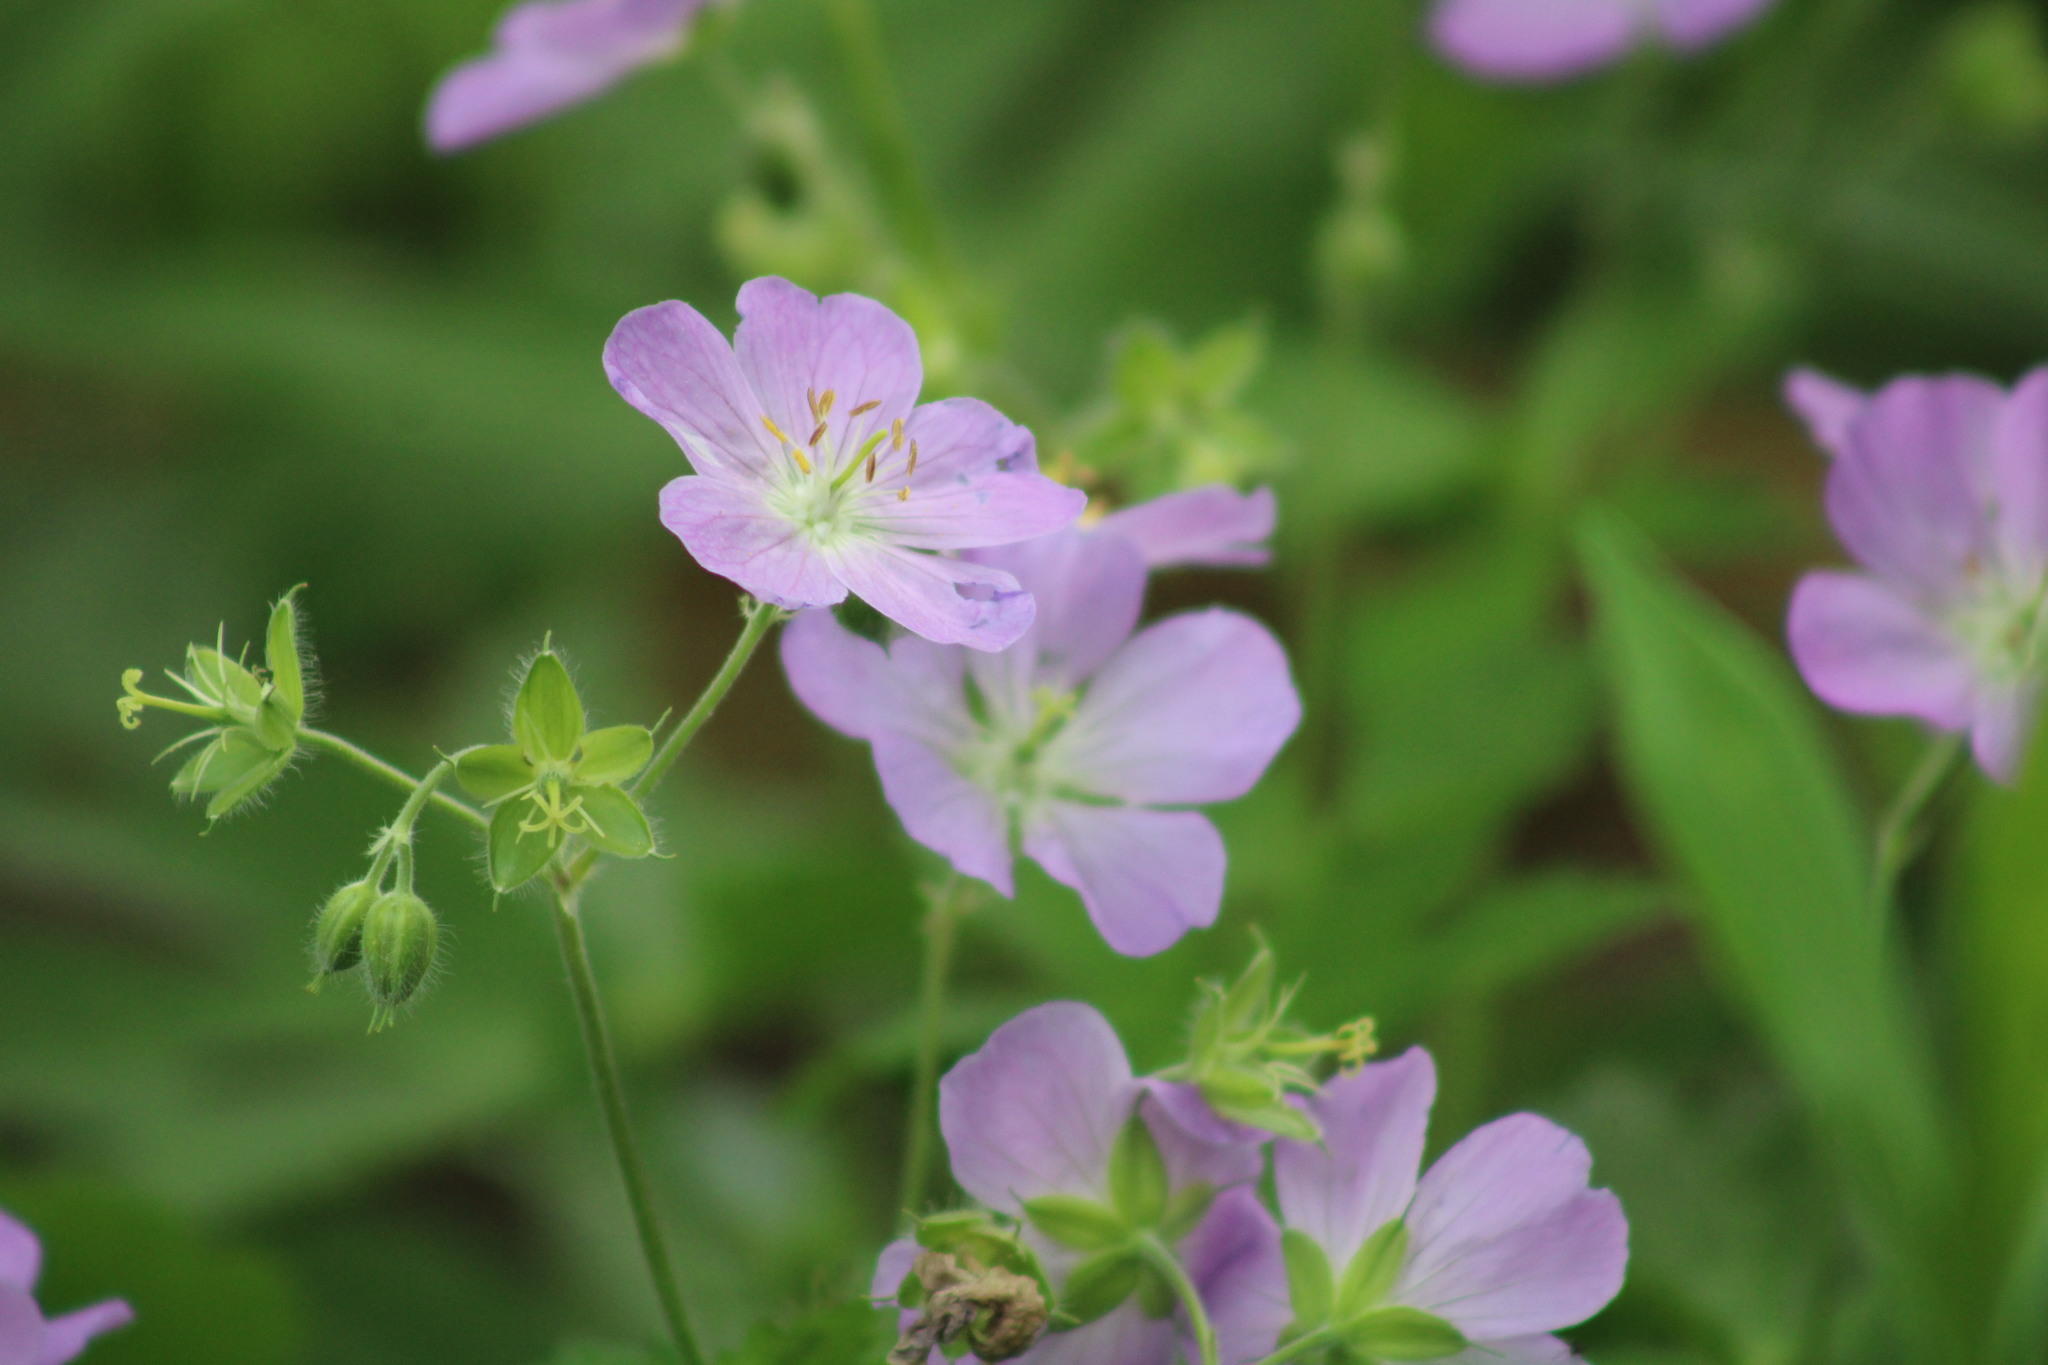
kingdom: Plantae
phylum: Tracheophyta
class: Magnoliopsida
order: Geraniales
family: Geraniaceae
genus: Geranium
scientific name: Geranium maculatum
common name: Spotted geranium
